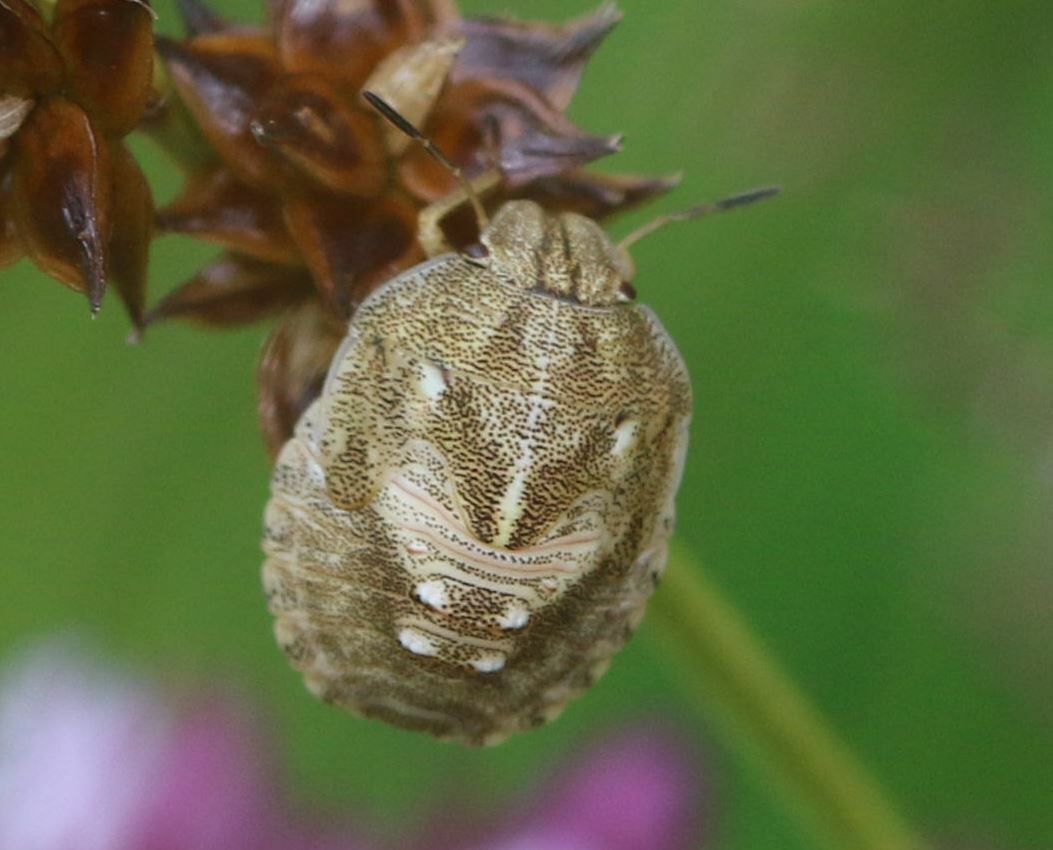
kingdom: Animalia
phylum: Arthropoda
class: Insecta
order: Hemiptera
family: Scutelleridae
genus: Eurygaster
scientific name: Eurygaster testudinaria
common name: Tortoise bug
